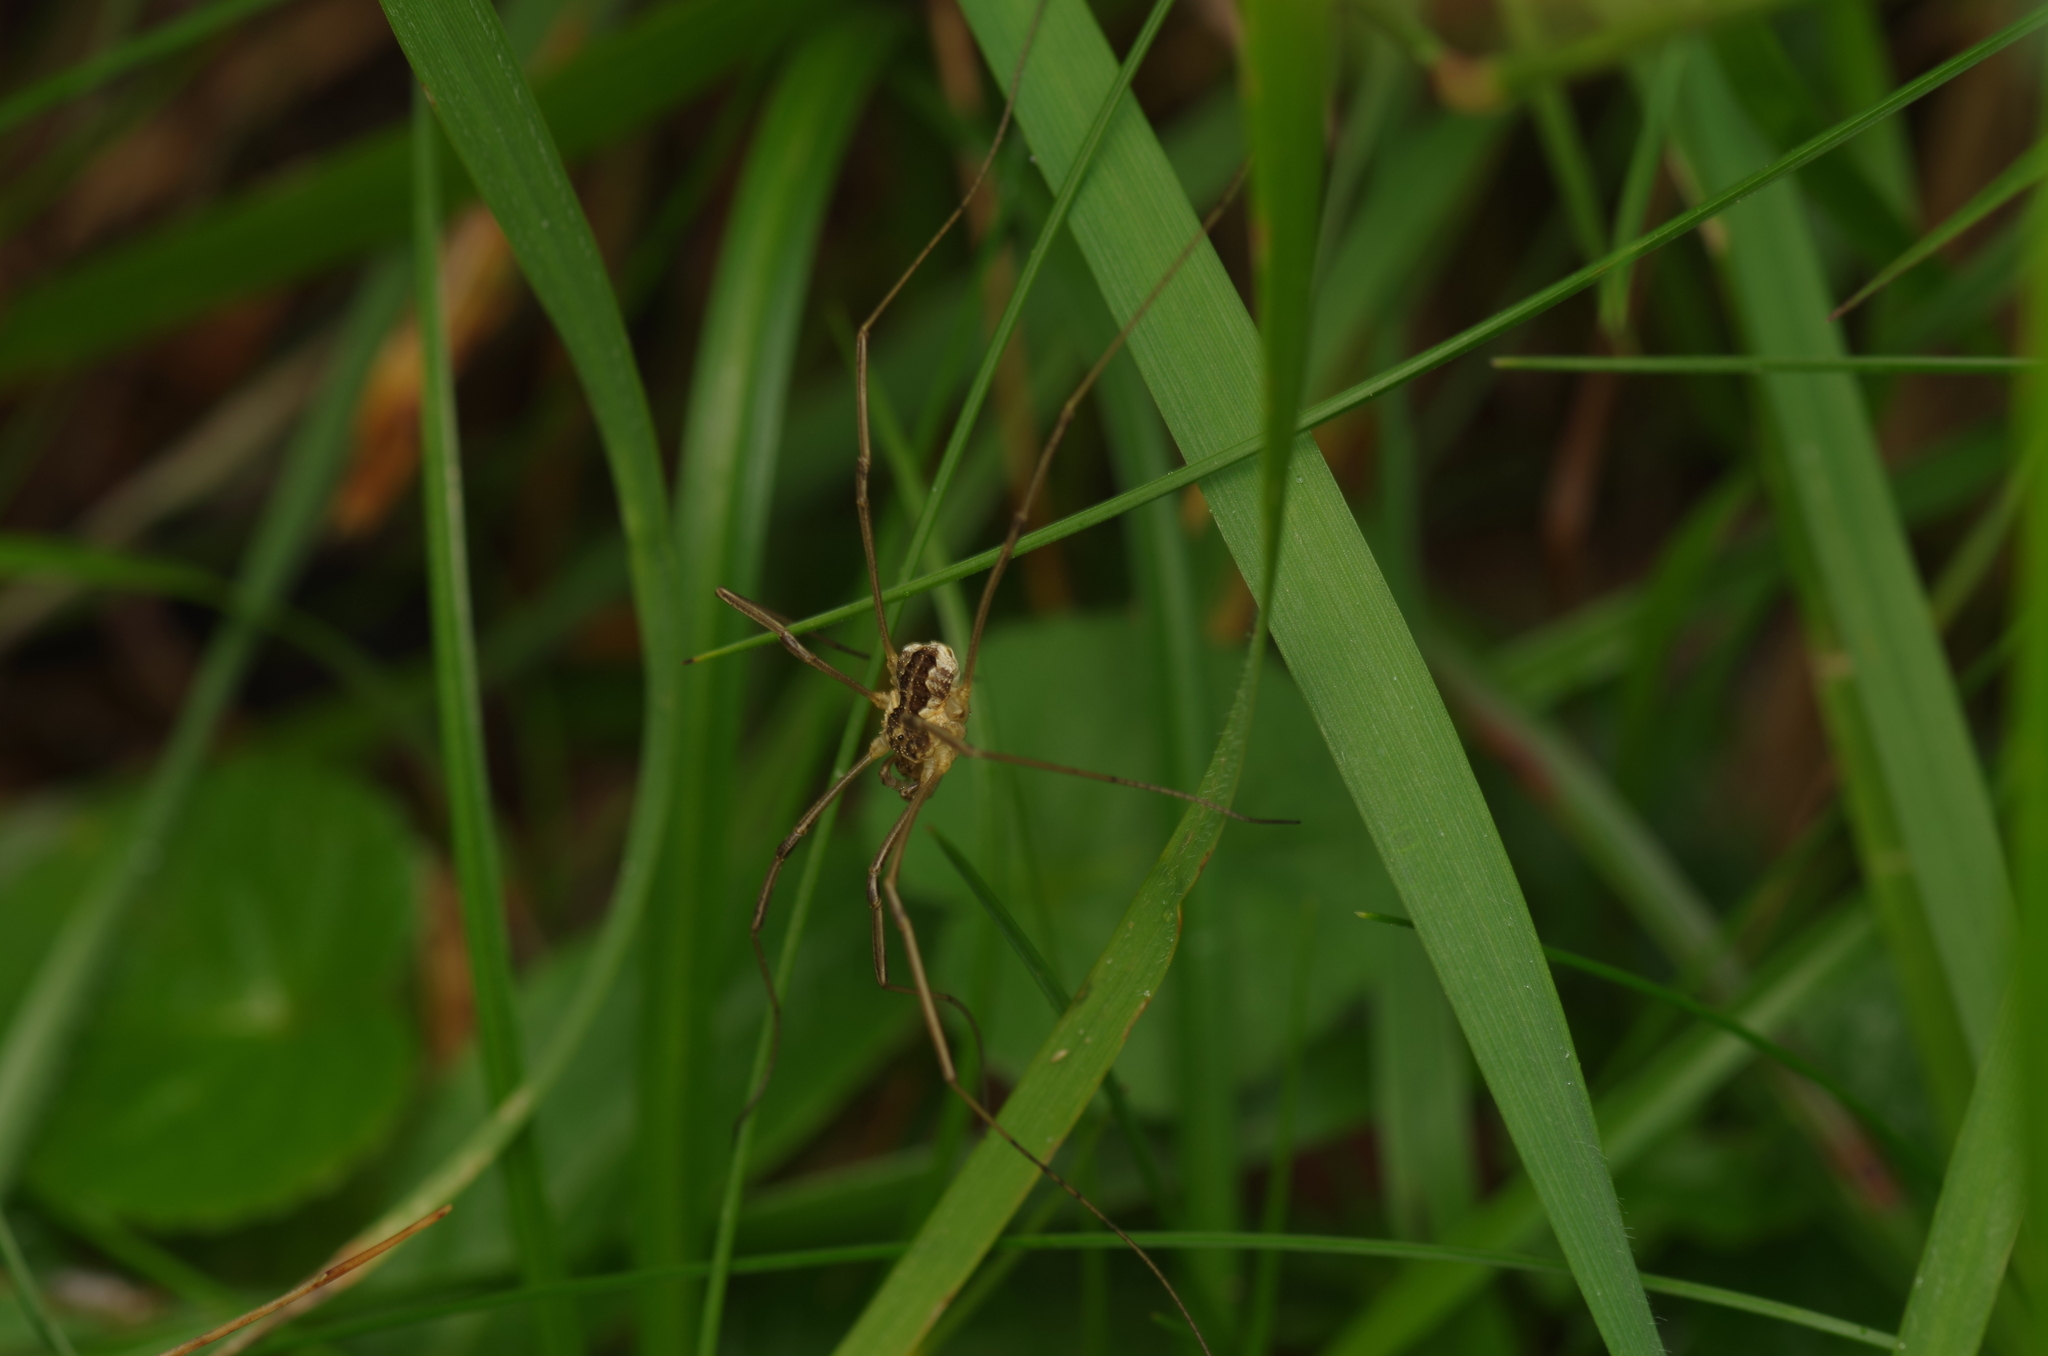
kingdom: Animalia
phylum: Arthropoda
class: Arachnida
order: Opiliones
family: Phalangiidae
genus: Mitopus
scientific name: Mitopus morio
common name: Saddleback harvestman
